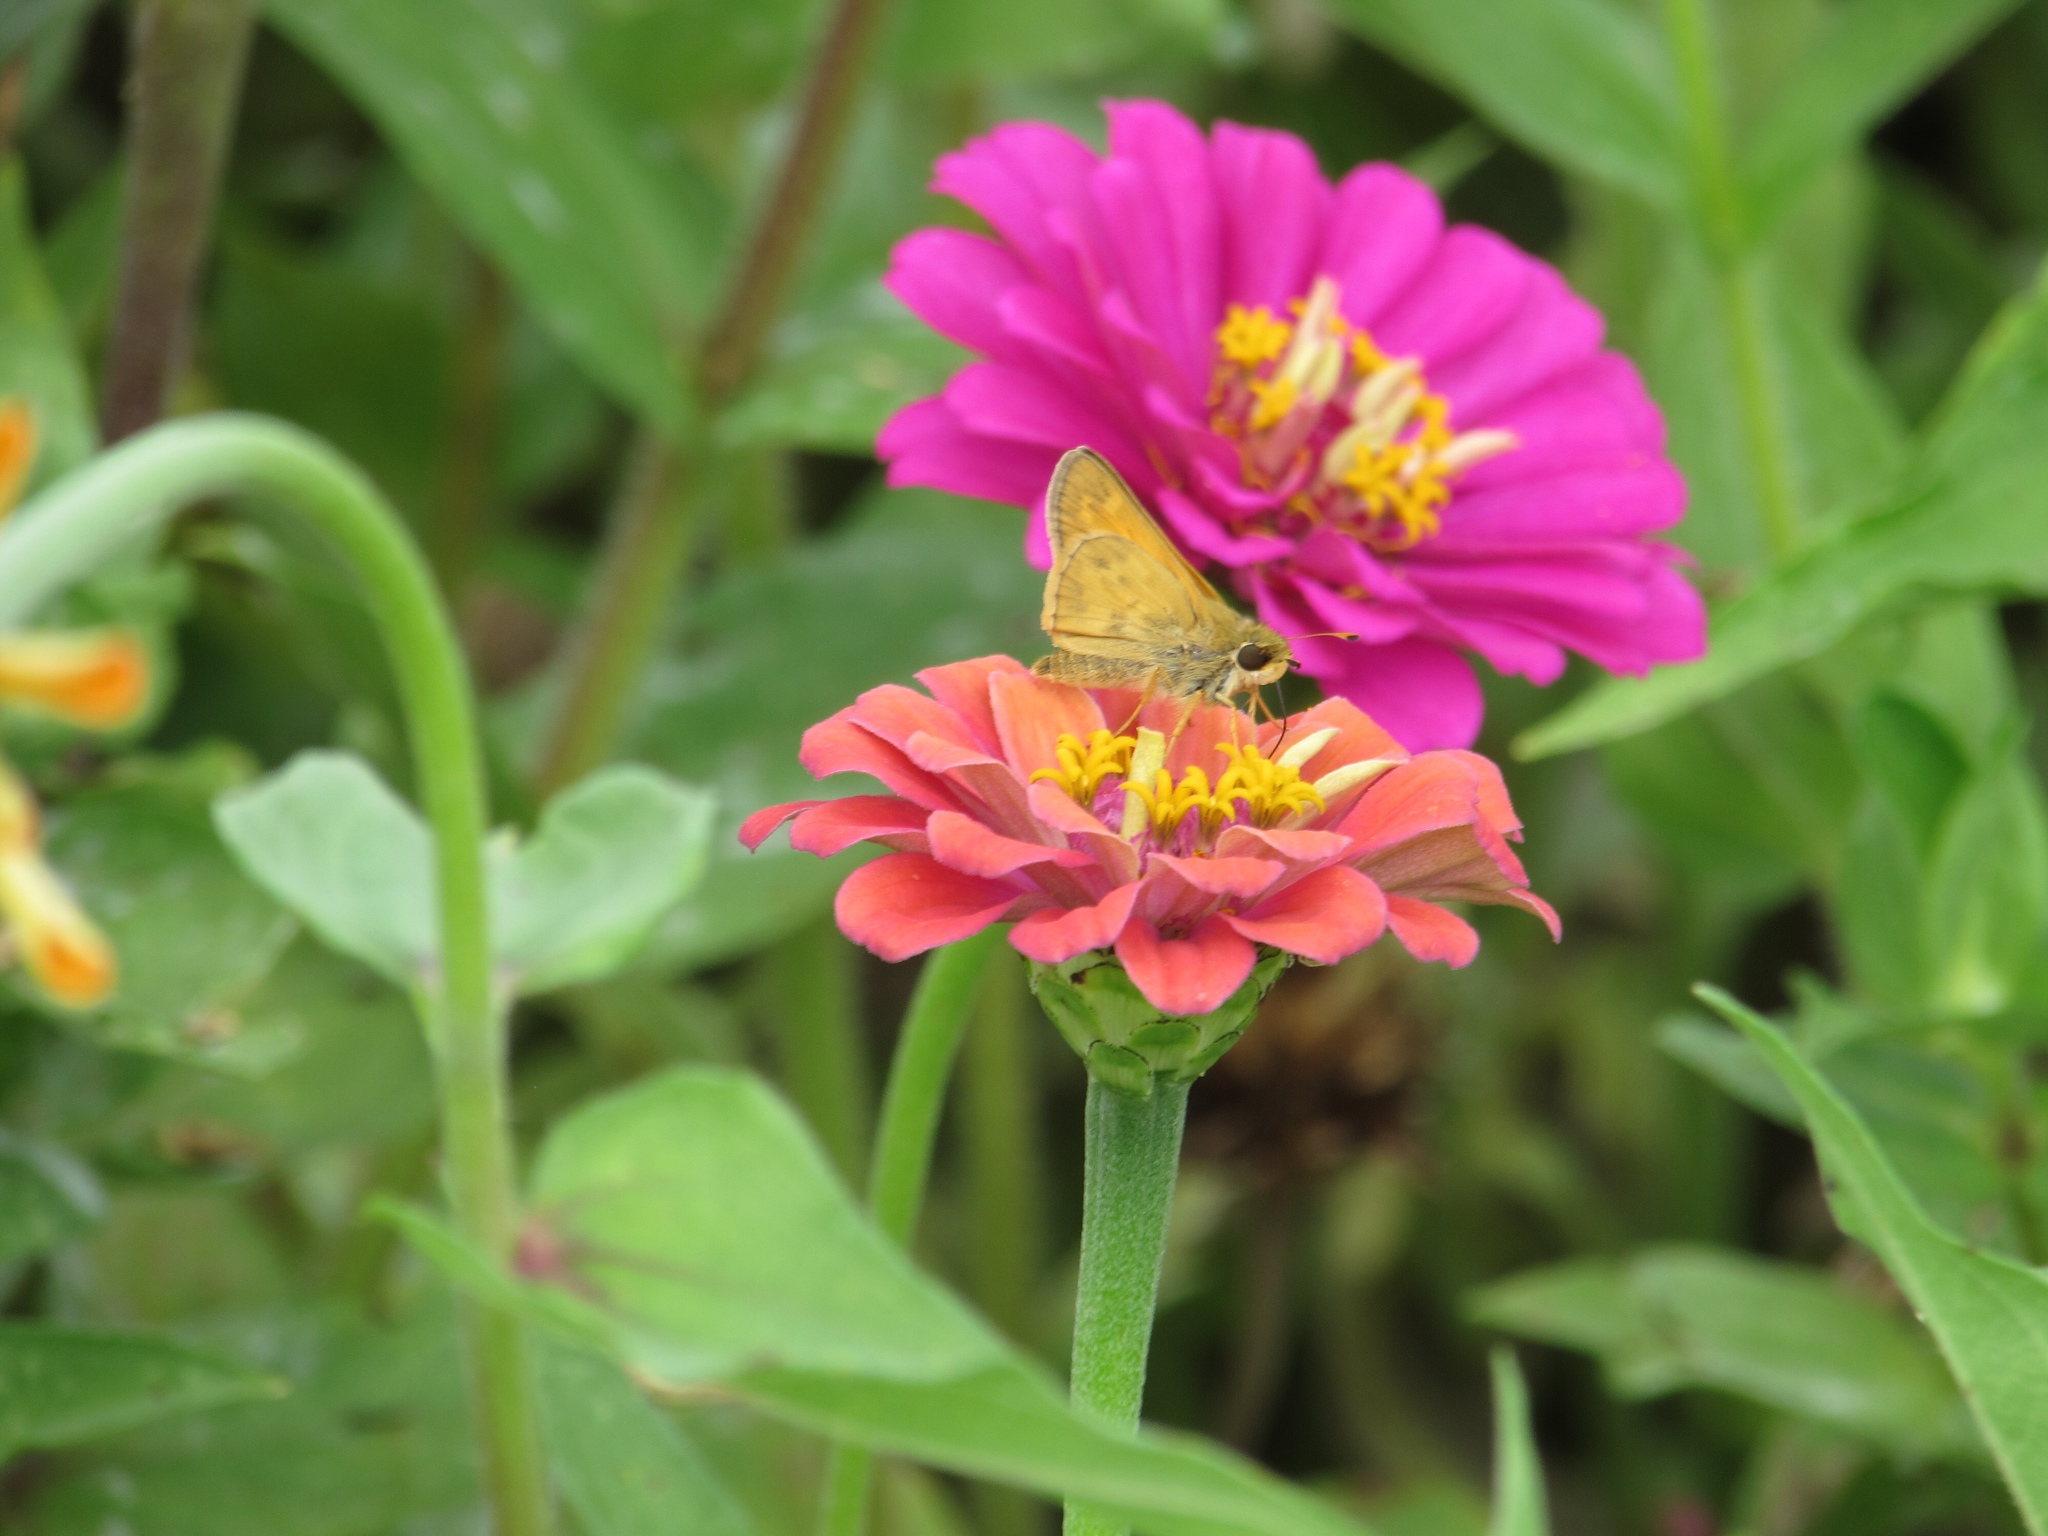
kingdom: Animalia
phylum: Arthropoda
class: Insecta
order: Lepidoptera
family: Hesperiidae
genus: Atalopedes
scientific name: Atalopedes
